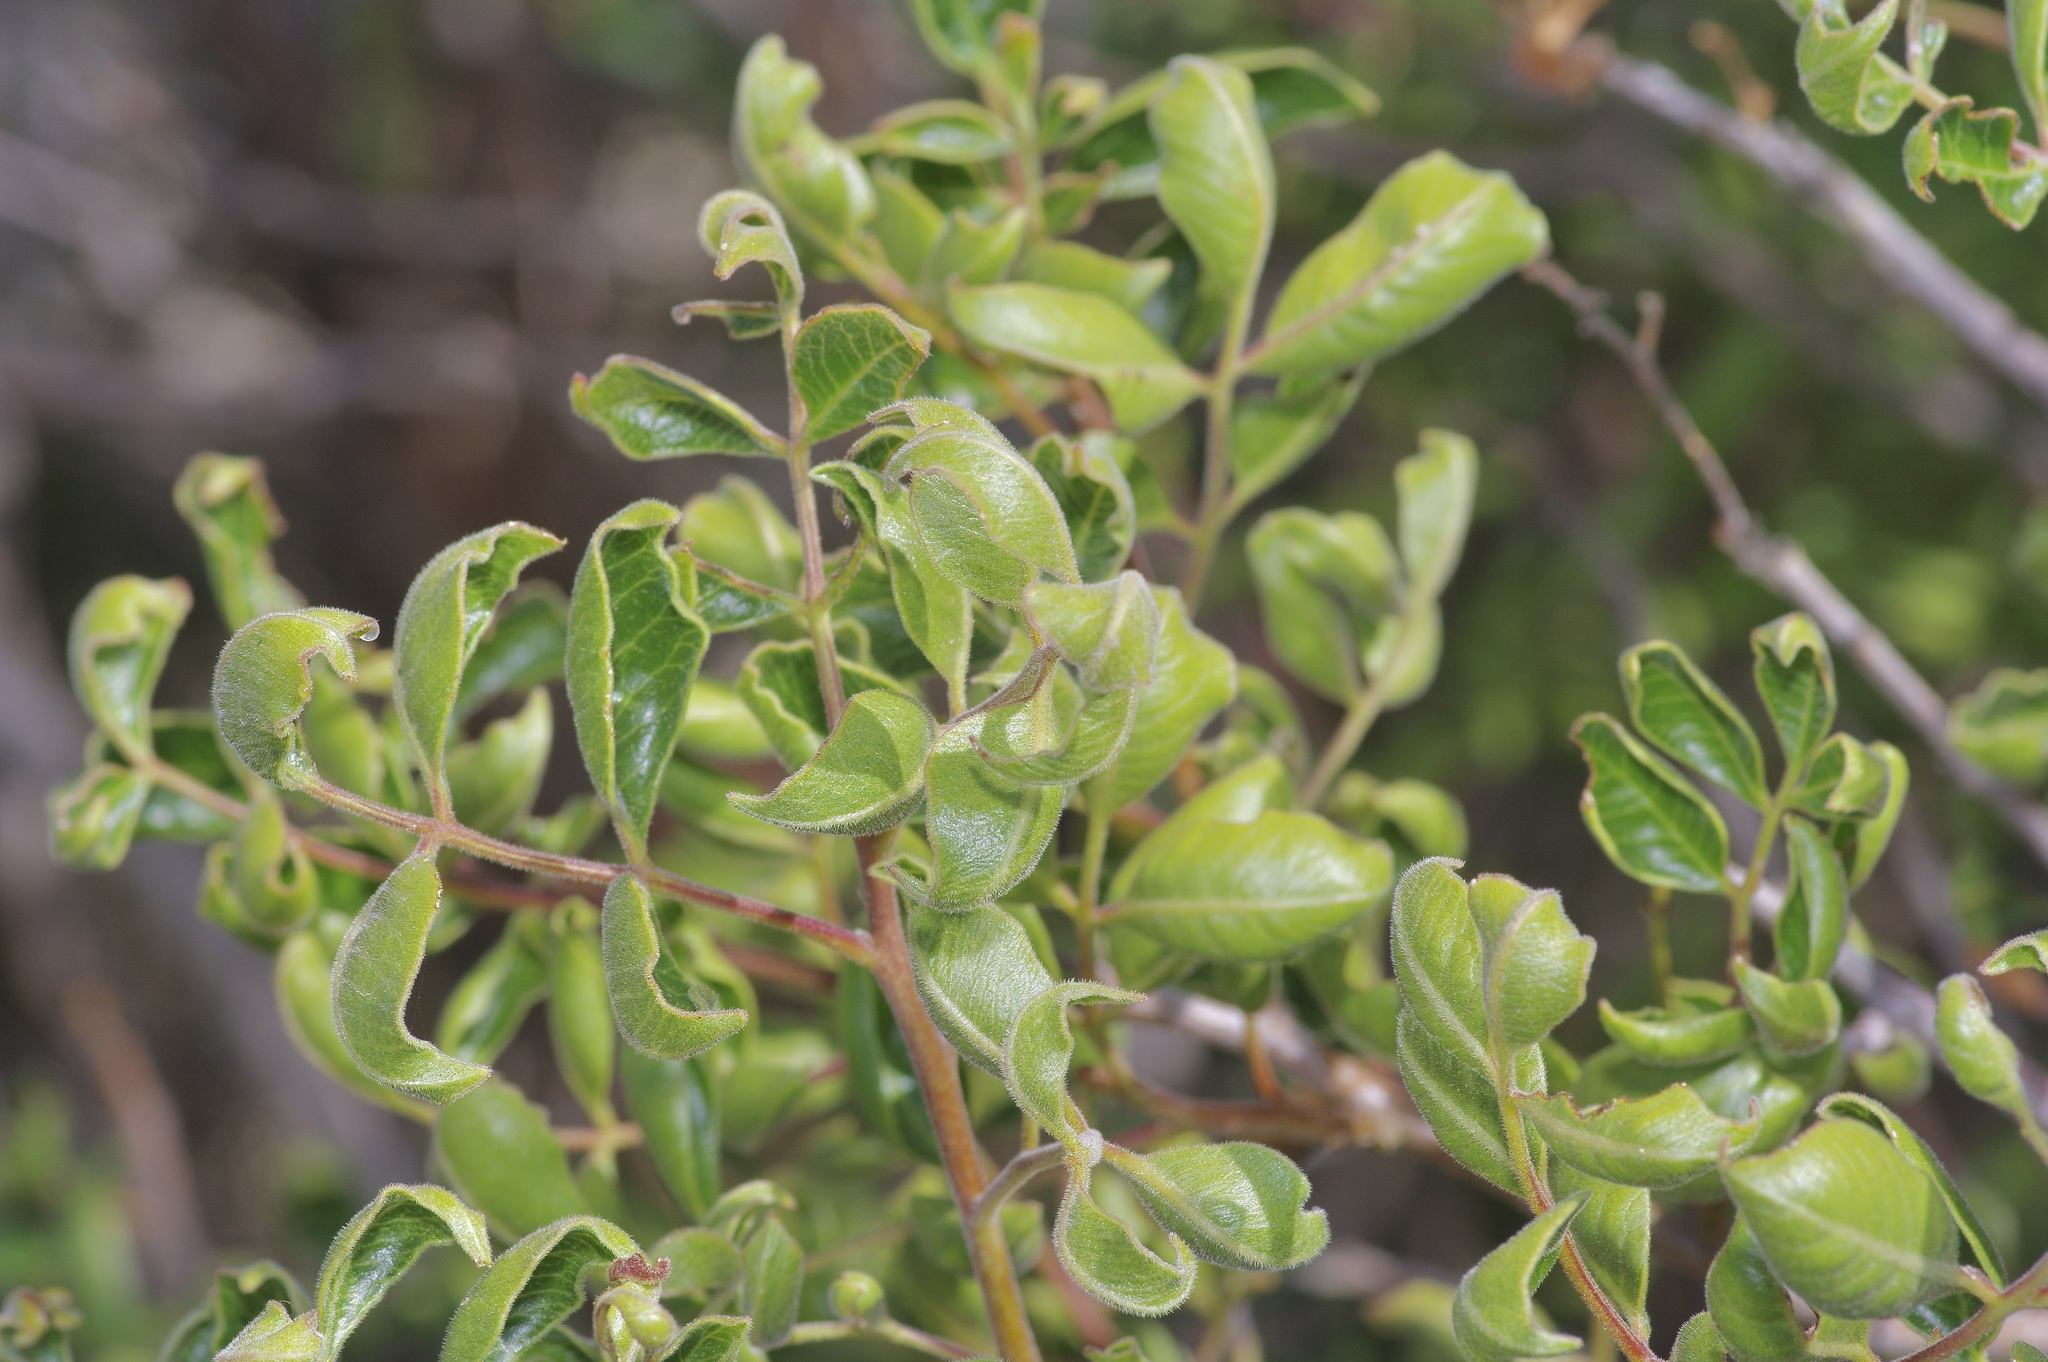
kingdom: Plantae
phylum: Tracheophyta
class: Magnoliopsida
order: Sapindales
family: Anacardiaceae
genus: Rhus
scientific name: Rhus virens
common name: Evergreen sumac
